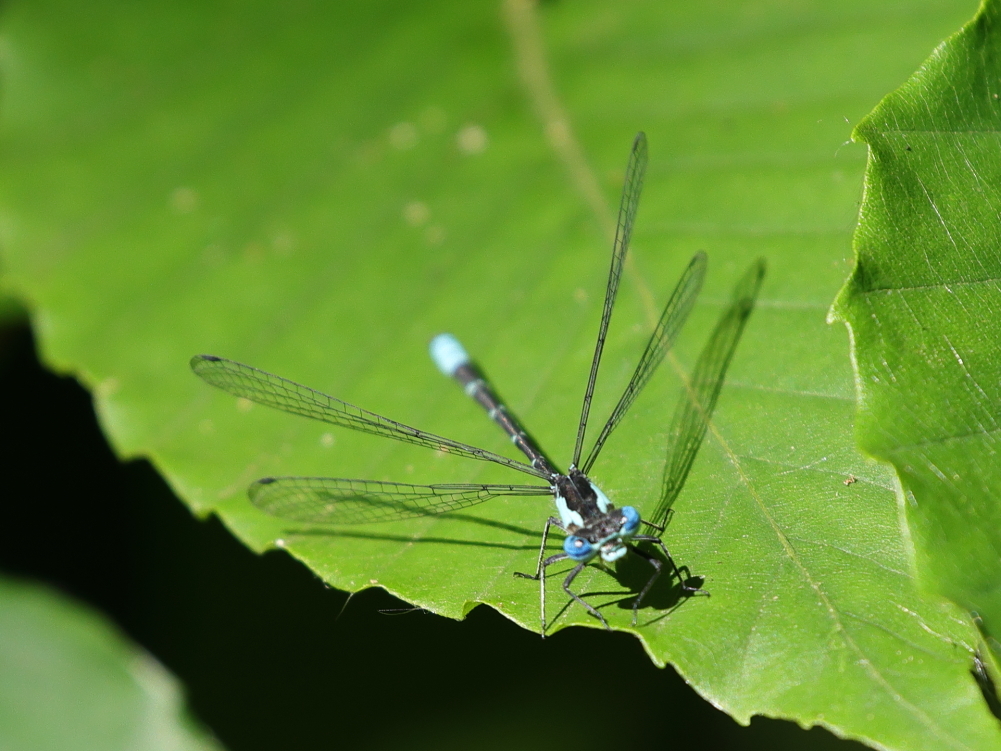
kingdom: Animalia
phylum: Arthropoda
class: Insecta
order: Odonata
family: Coenagrionidae
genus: Chromagrion
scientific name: Chromagrion conditum
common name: Aurora damsel
